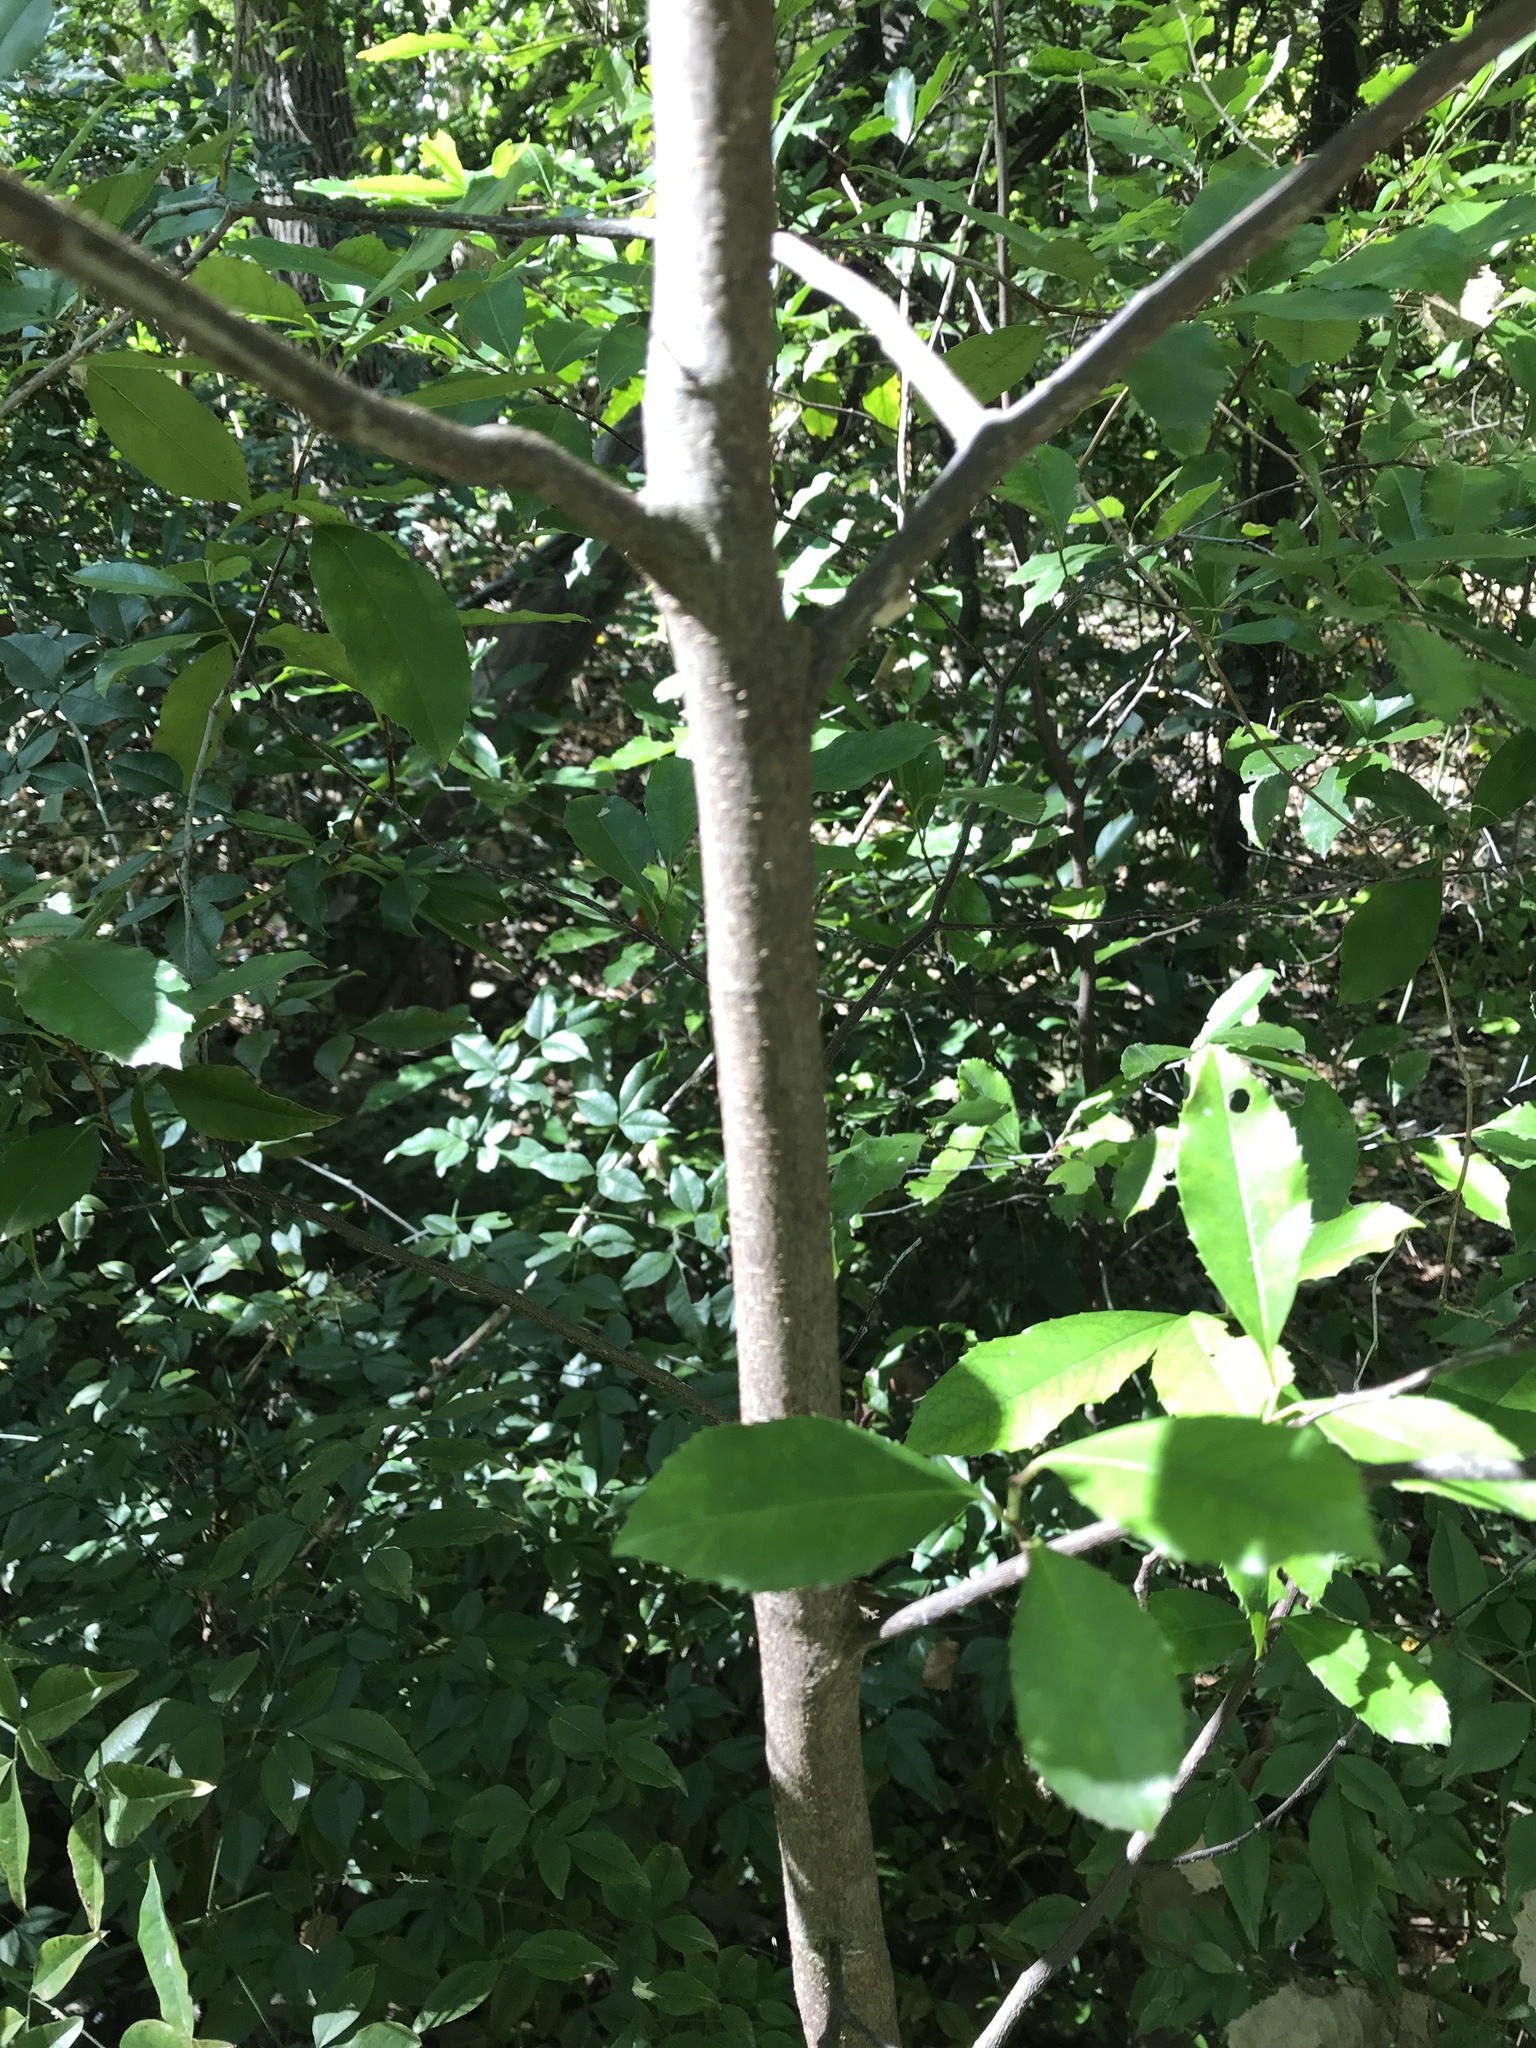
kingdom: Plantae
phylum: Tracheophyta
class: Magnoliopsida
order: Rosales
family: Rosaceae
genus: Prunus
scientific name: Prunus caroliniana
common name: Carolina laurel cherry
